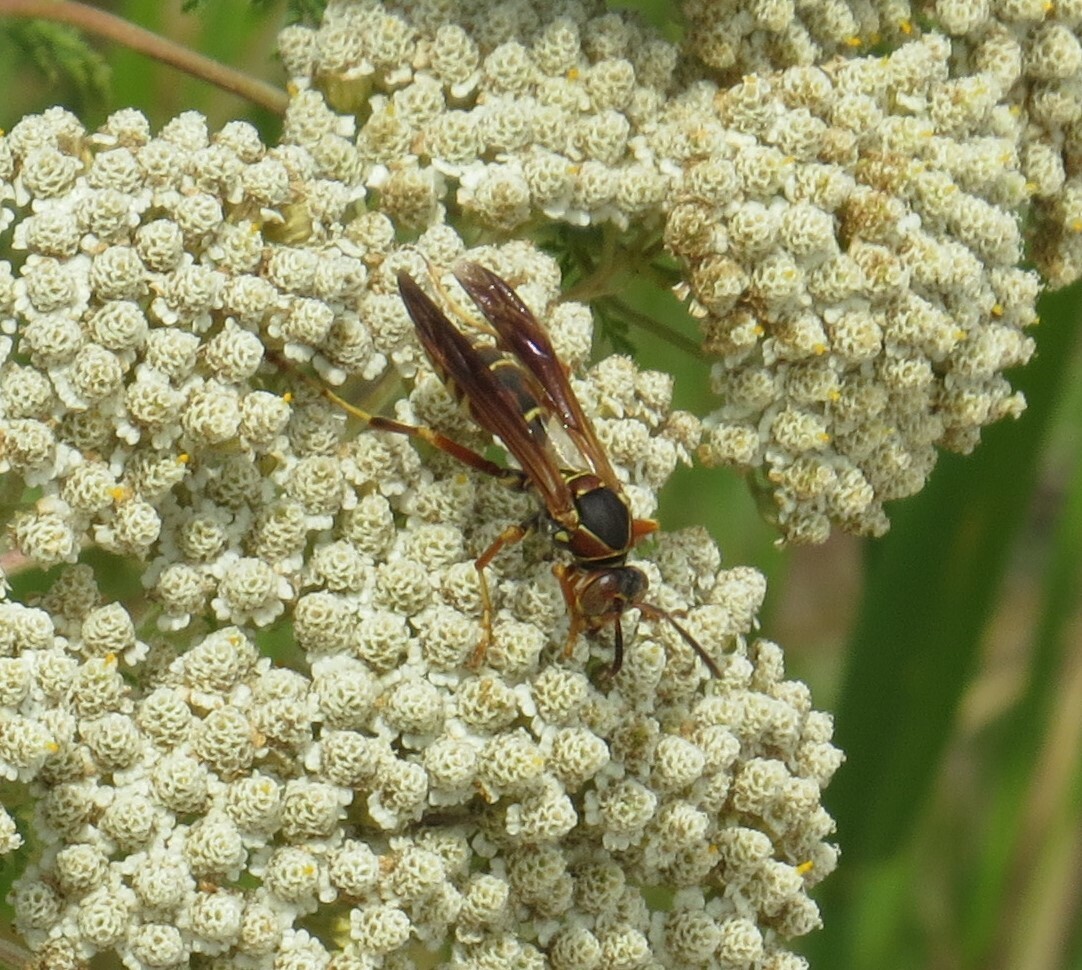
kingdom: Animalia
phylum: Arthropoda
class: Insecta
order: Hymenoptera
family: Eumenidae
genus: Polistes
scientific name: Polistes fuscatus
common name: Dark paper wasp
